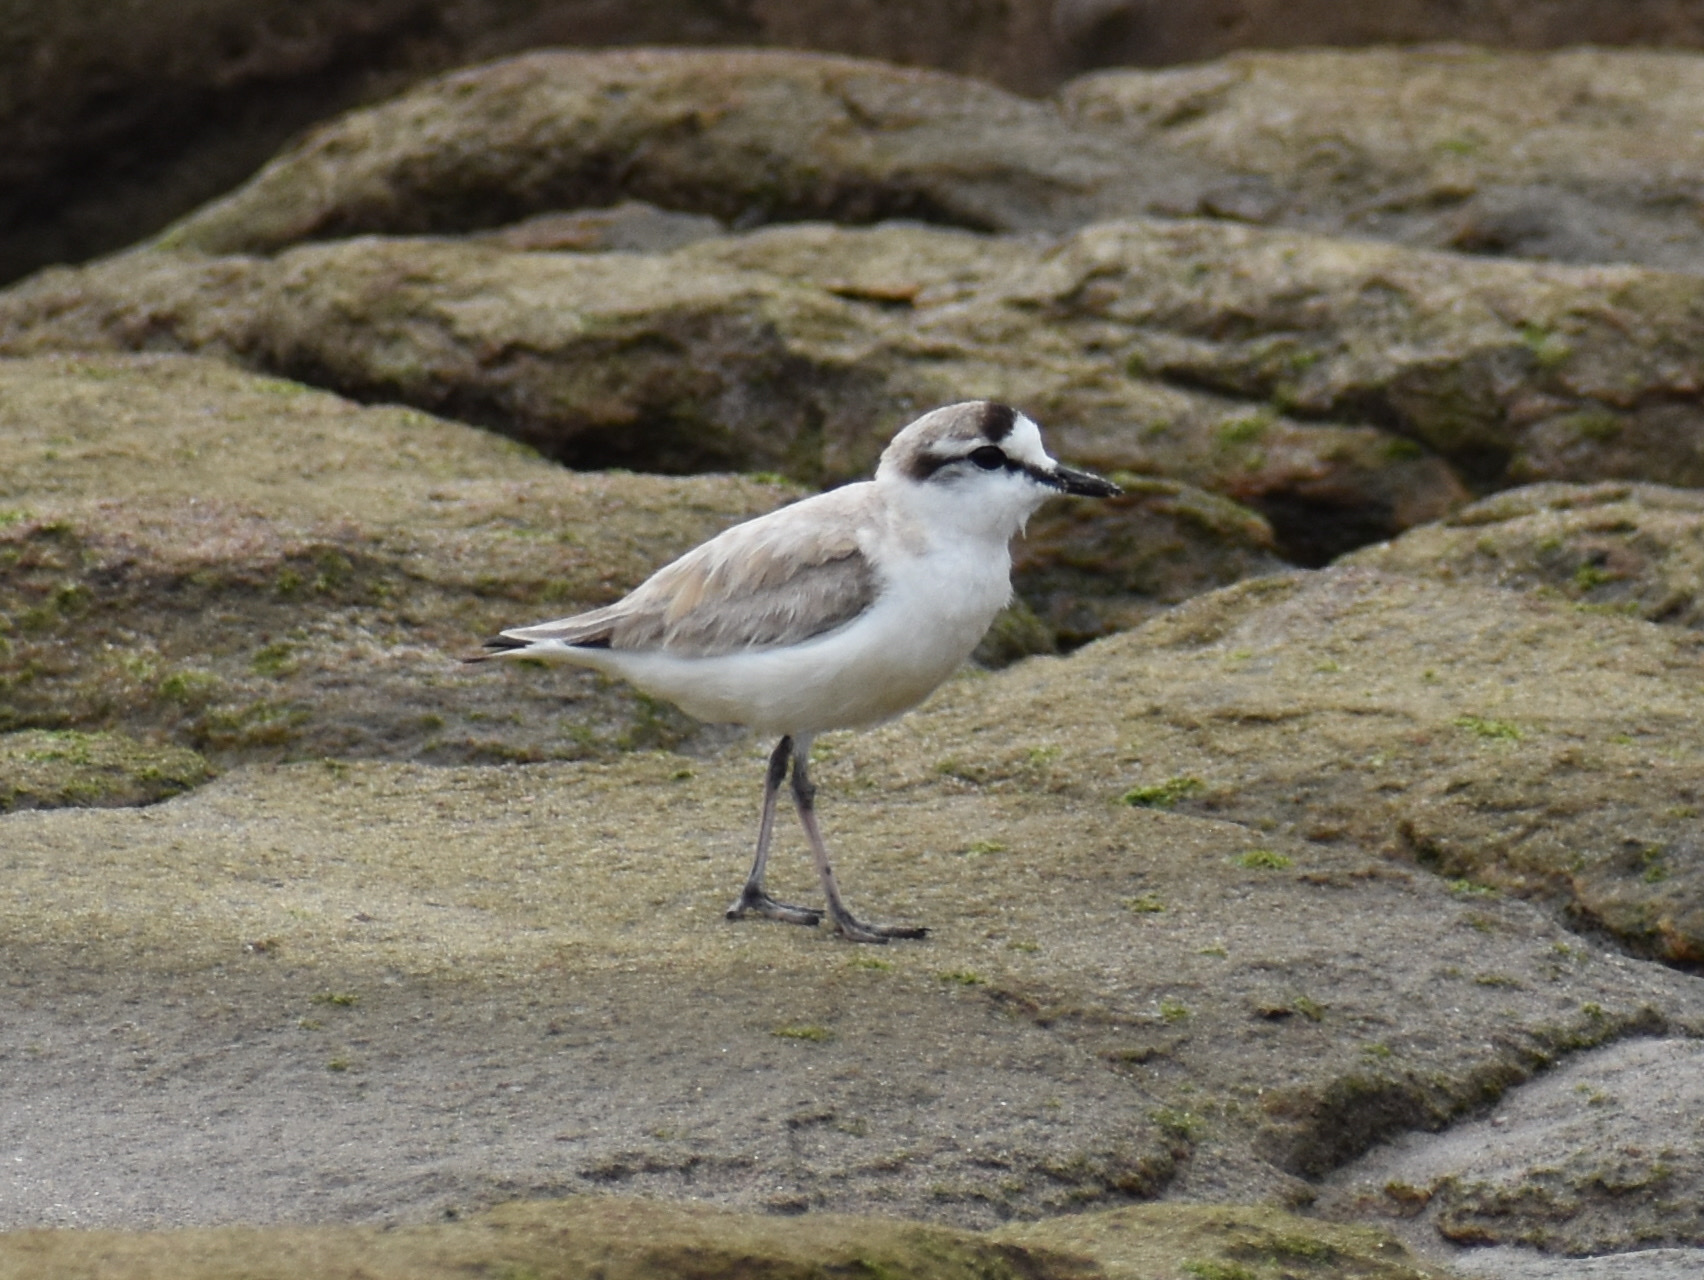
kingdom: Animalia
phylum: Chordata
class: Aves
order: Charadriiformes
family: Charadriidae
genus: Anarhynchus
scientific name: Anarhynchus
